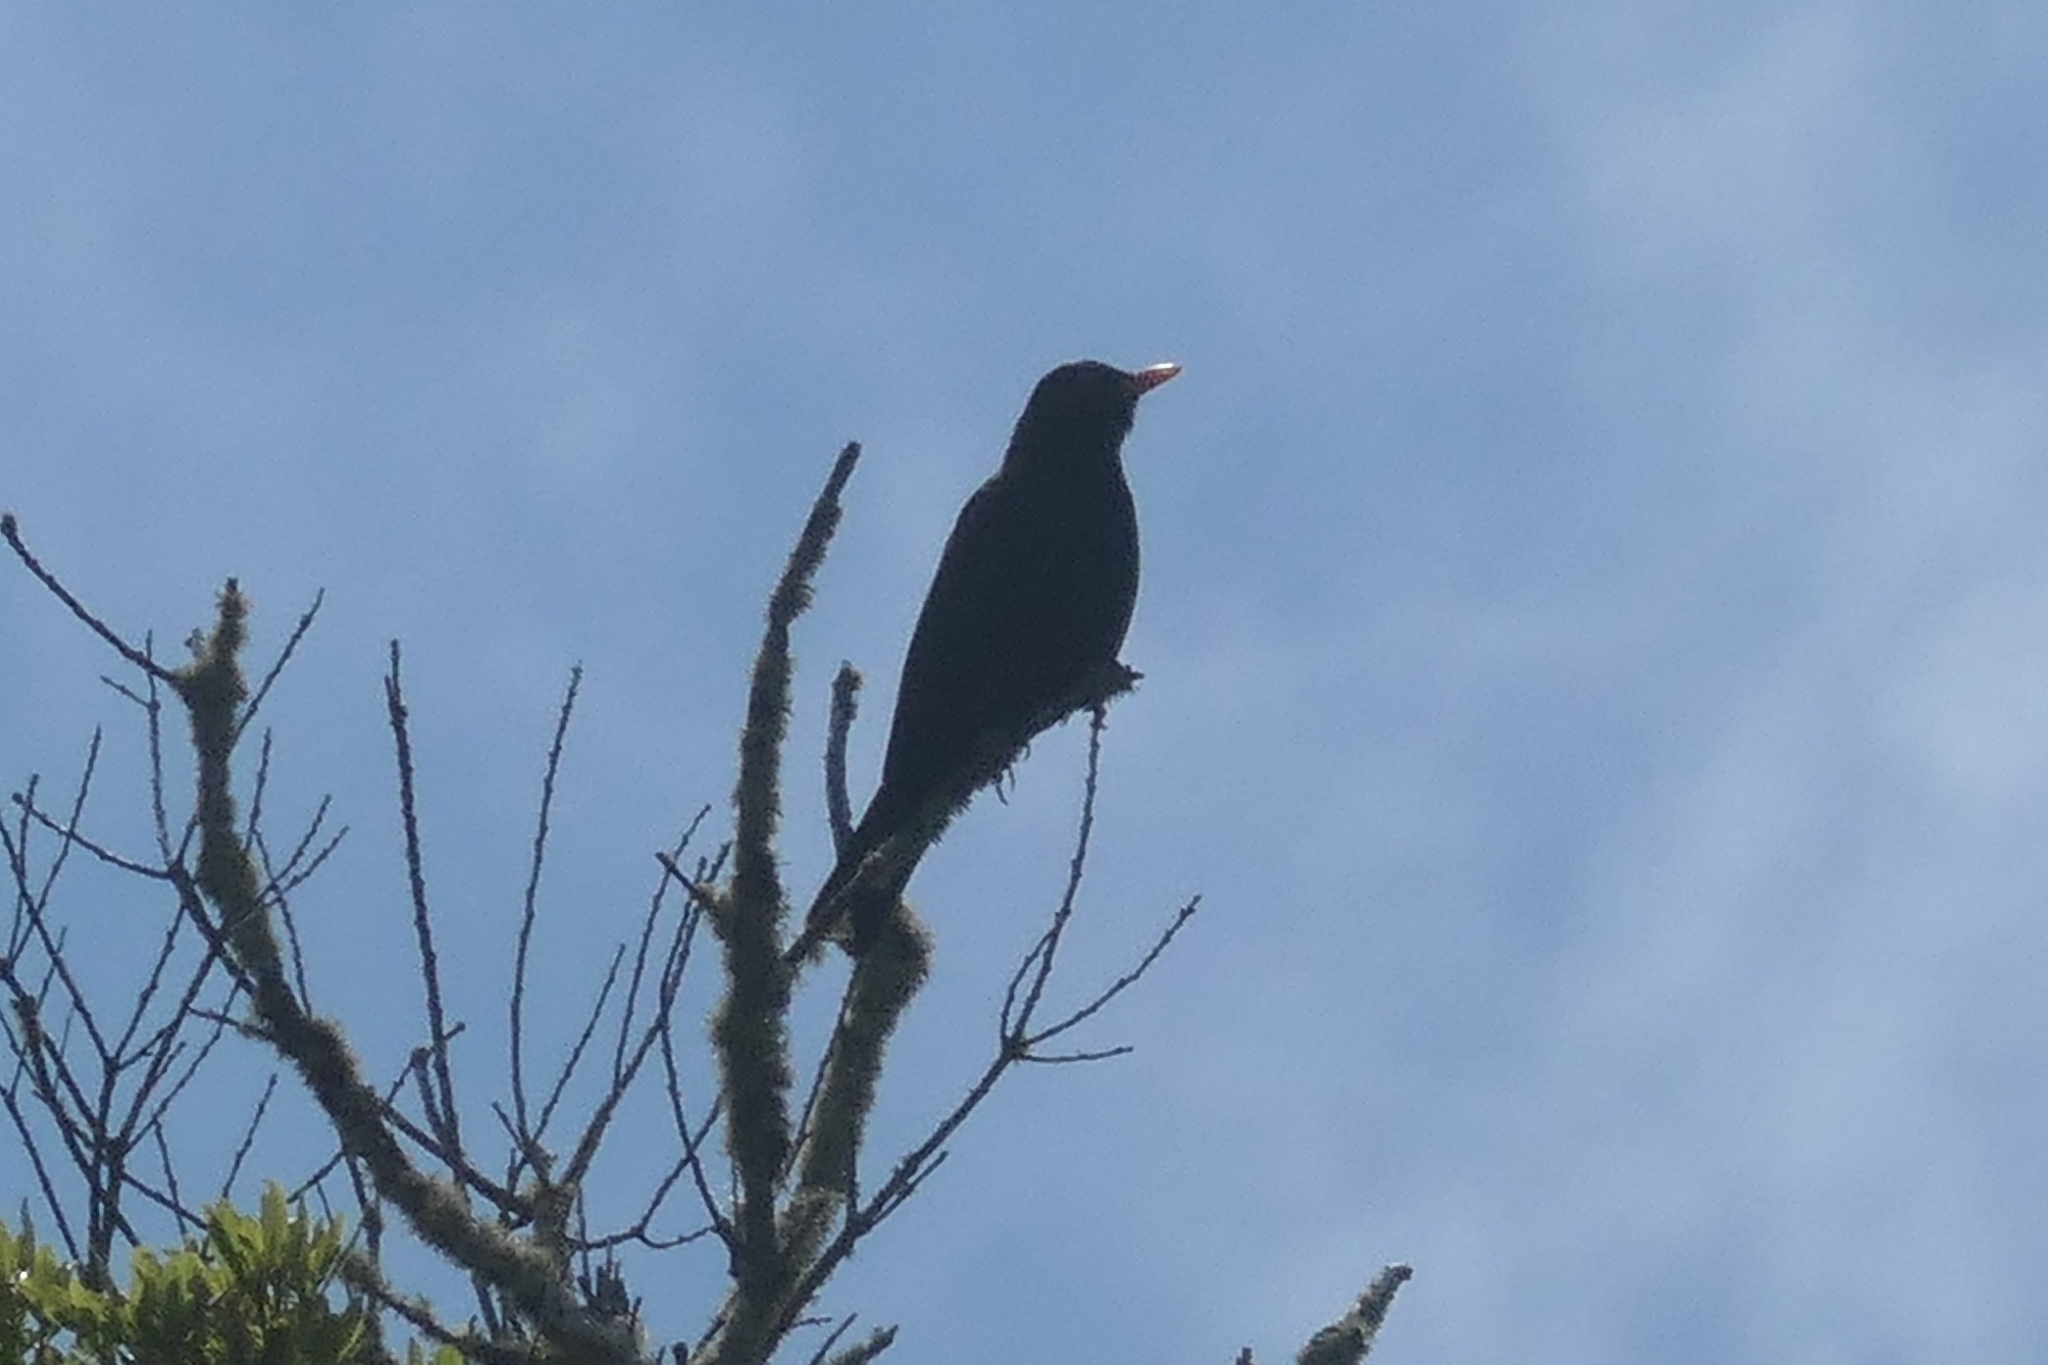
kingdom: Animalia
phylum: Chordata
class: Aves
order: Passeriformes
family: Turdidae
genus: Turdus
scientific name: Turdus merula
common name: Common blackbird
